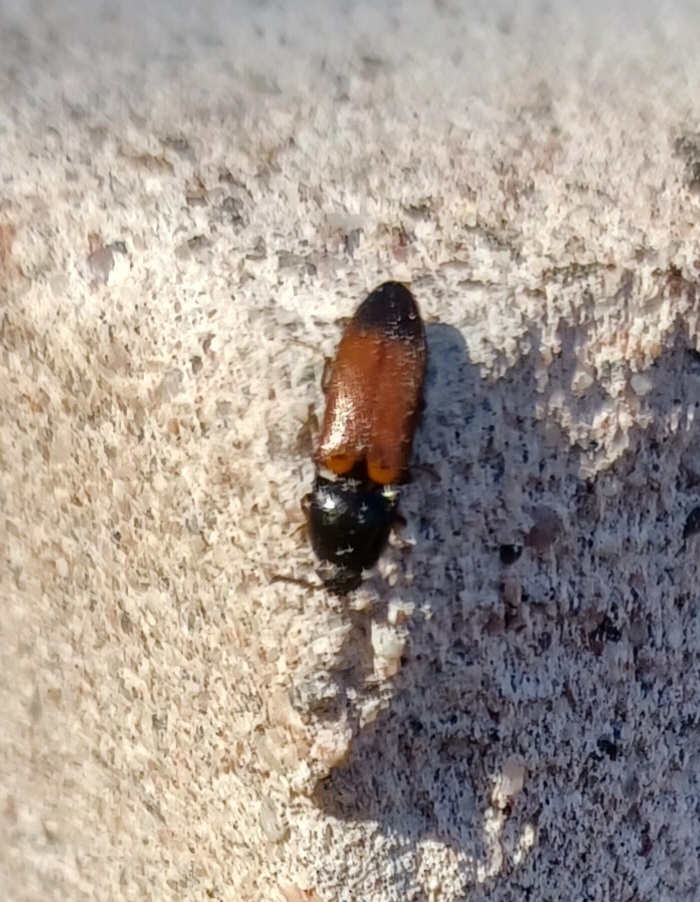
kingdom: Animalia
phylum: Arthropoda
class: Insecta
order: Coleoptera
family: Elateridae
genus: Ampedus
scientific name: Ampedus balteatus
